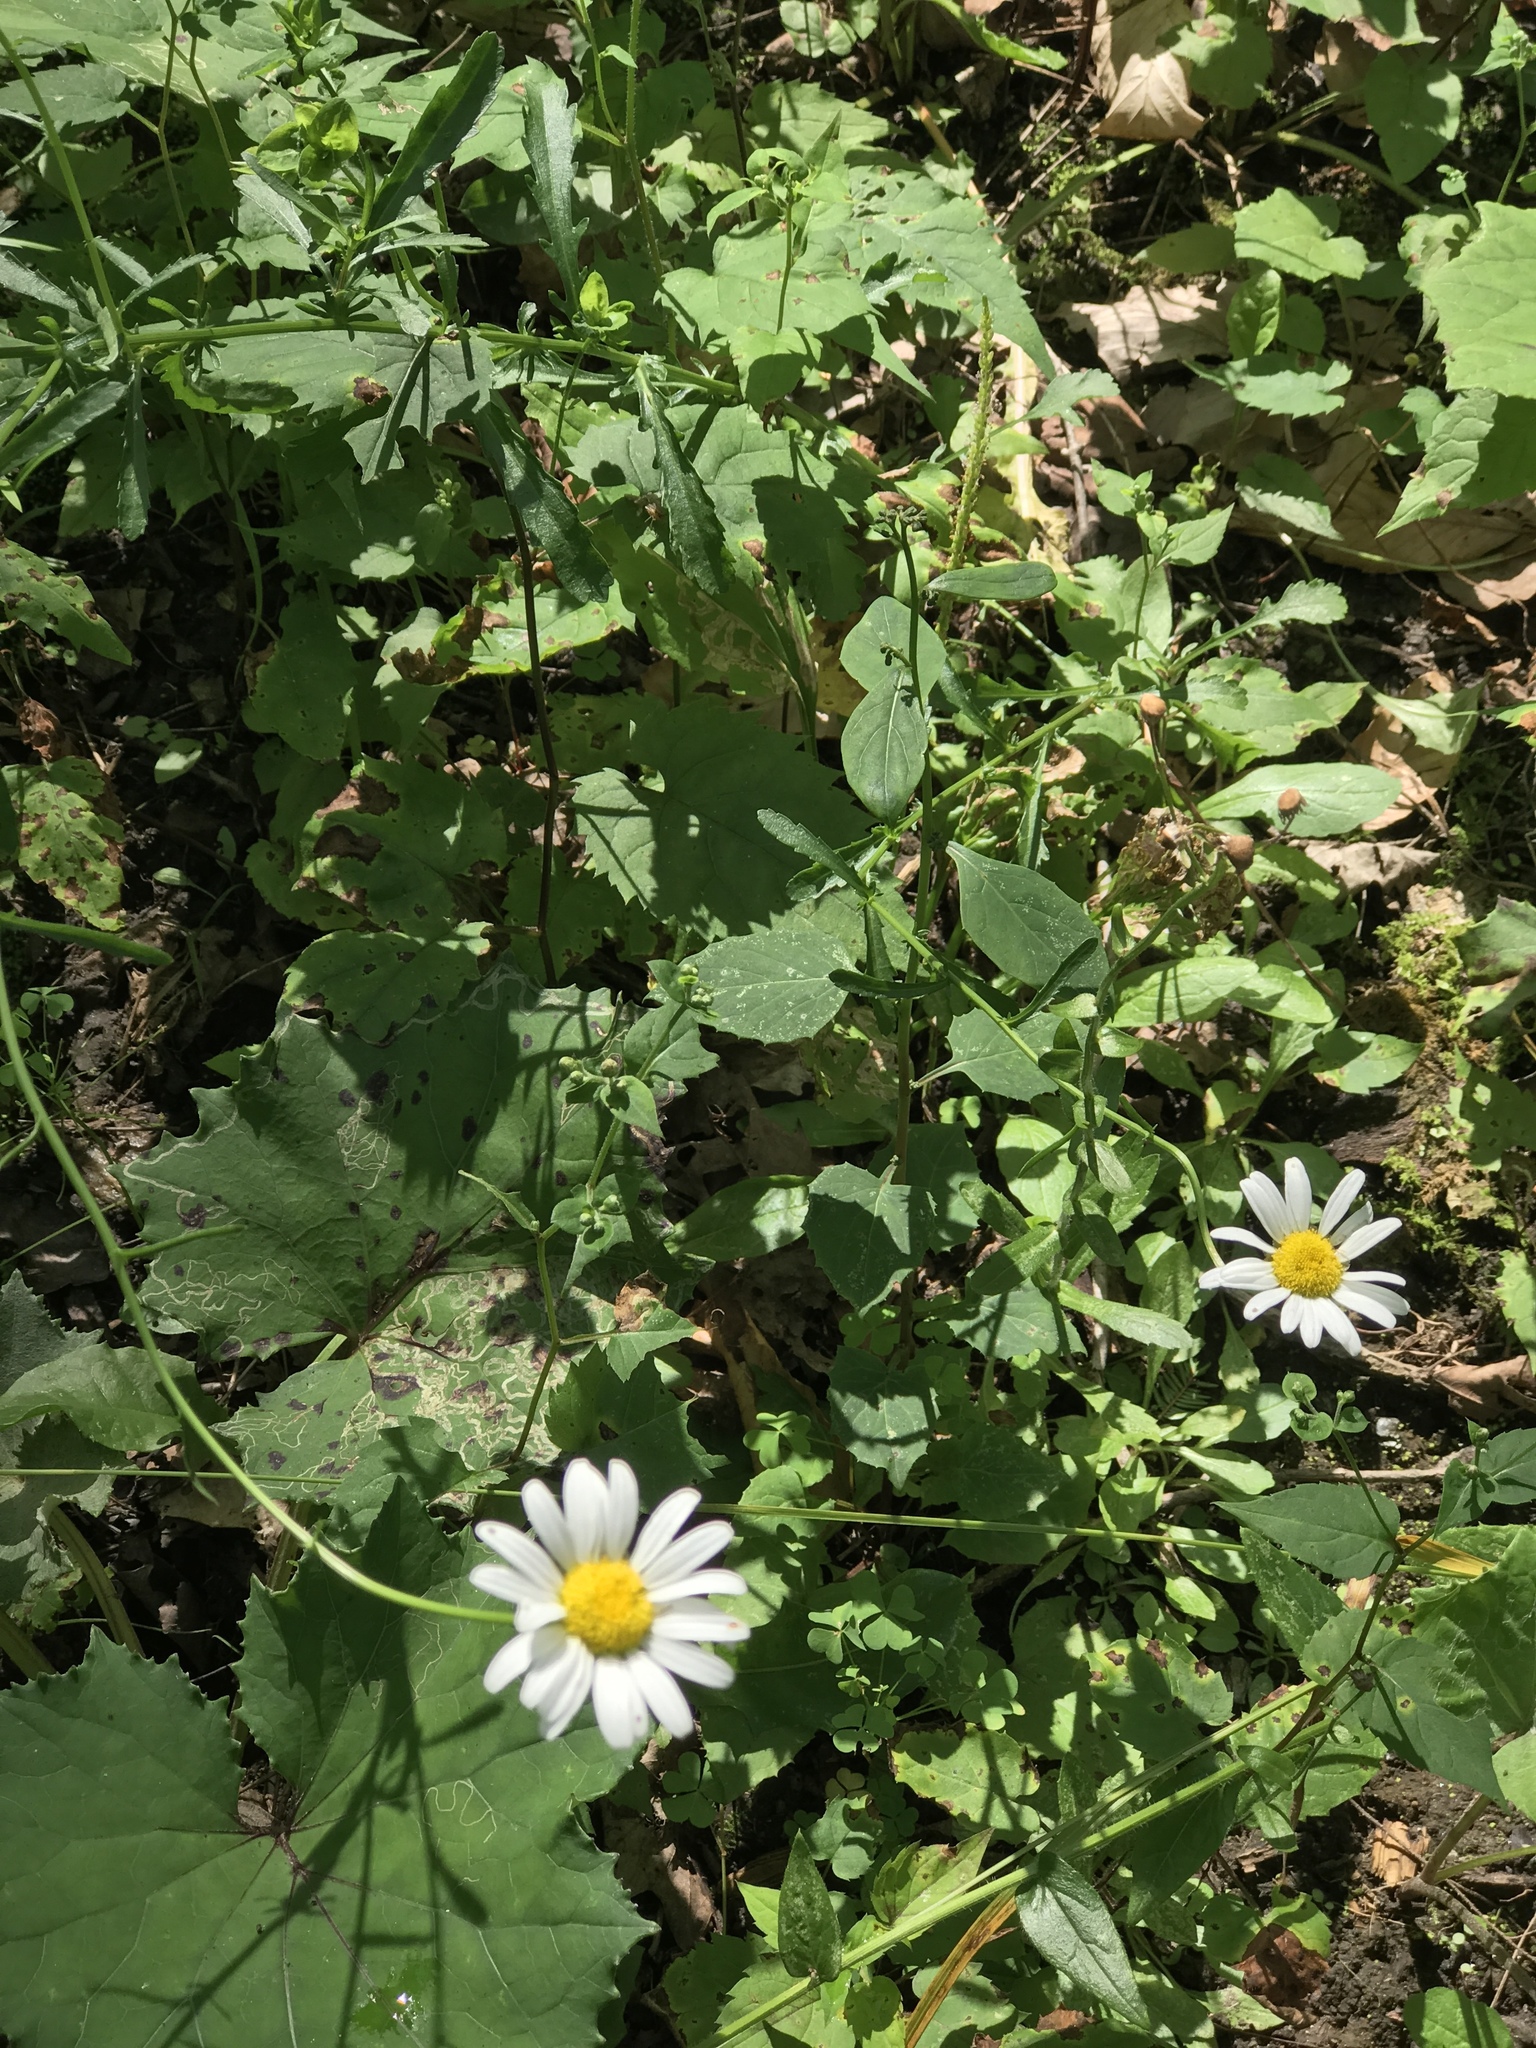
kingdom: Plantae
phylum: Tracheophyta
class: Magnoliopsida
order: Asterales
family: Asteraceae
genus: Leucanthemum
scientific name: Leucanthemum vulgare
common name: Oxeye daisy
